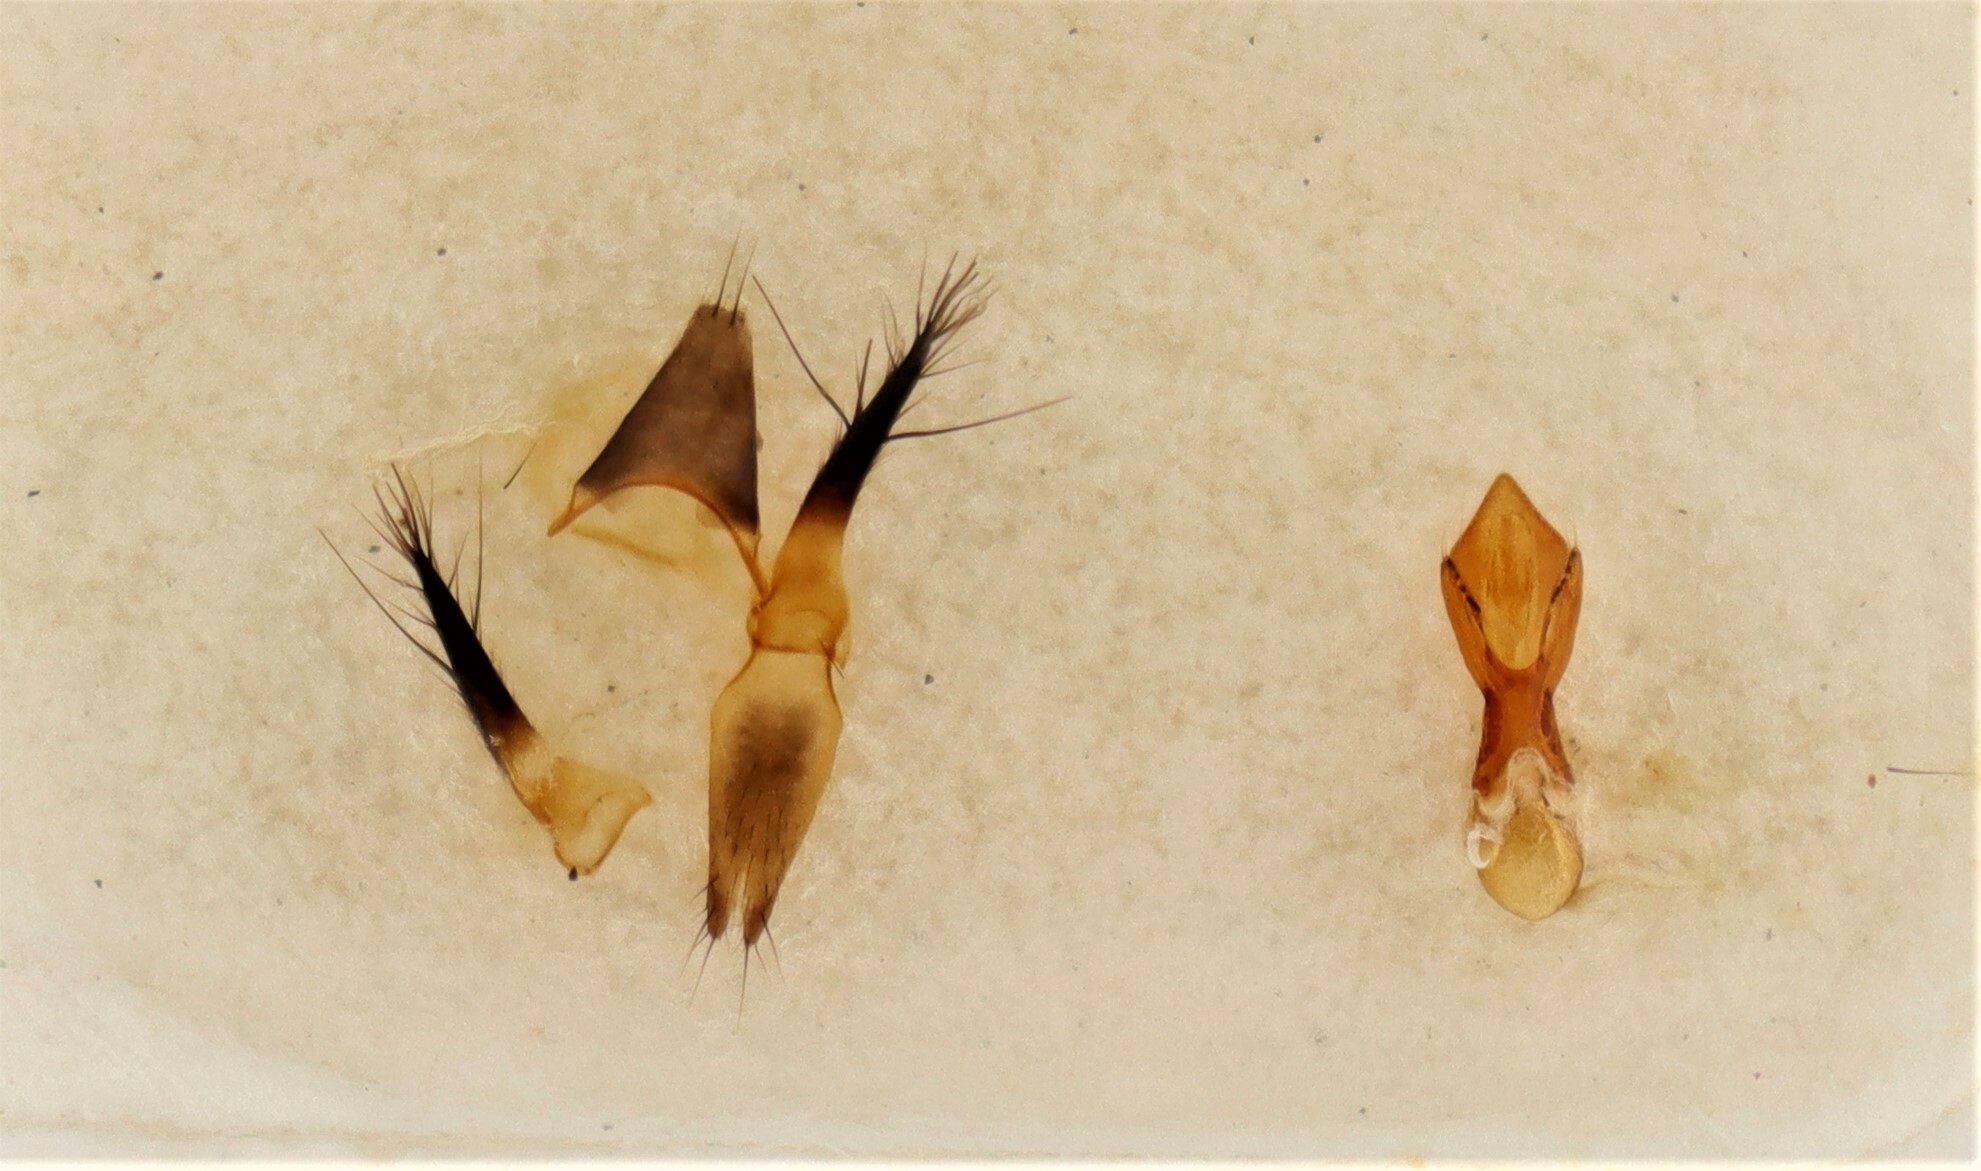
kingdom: Animalia
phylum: Arthropoda
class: Insecta
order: Coleoptera
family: Staphylinidae
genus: Bisnius
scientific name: Bisnius siegwaldii
